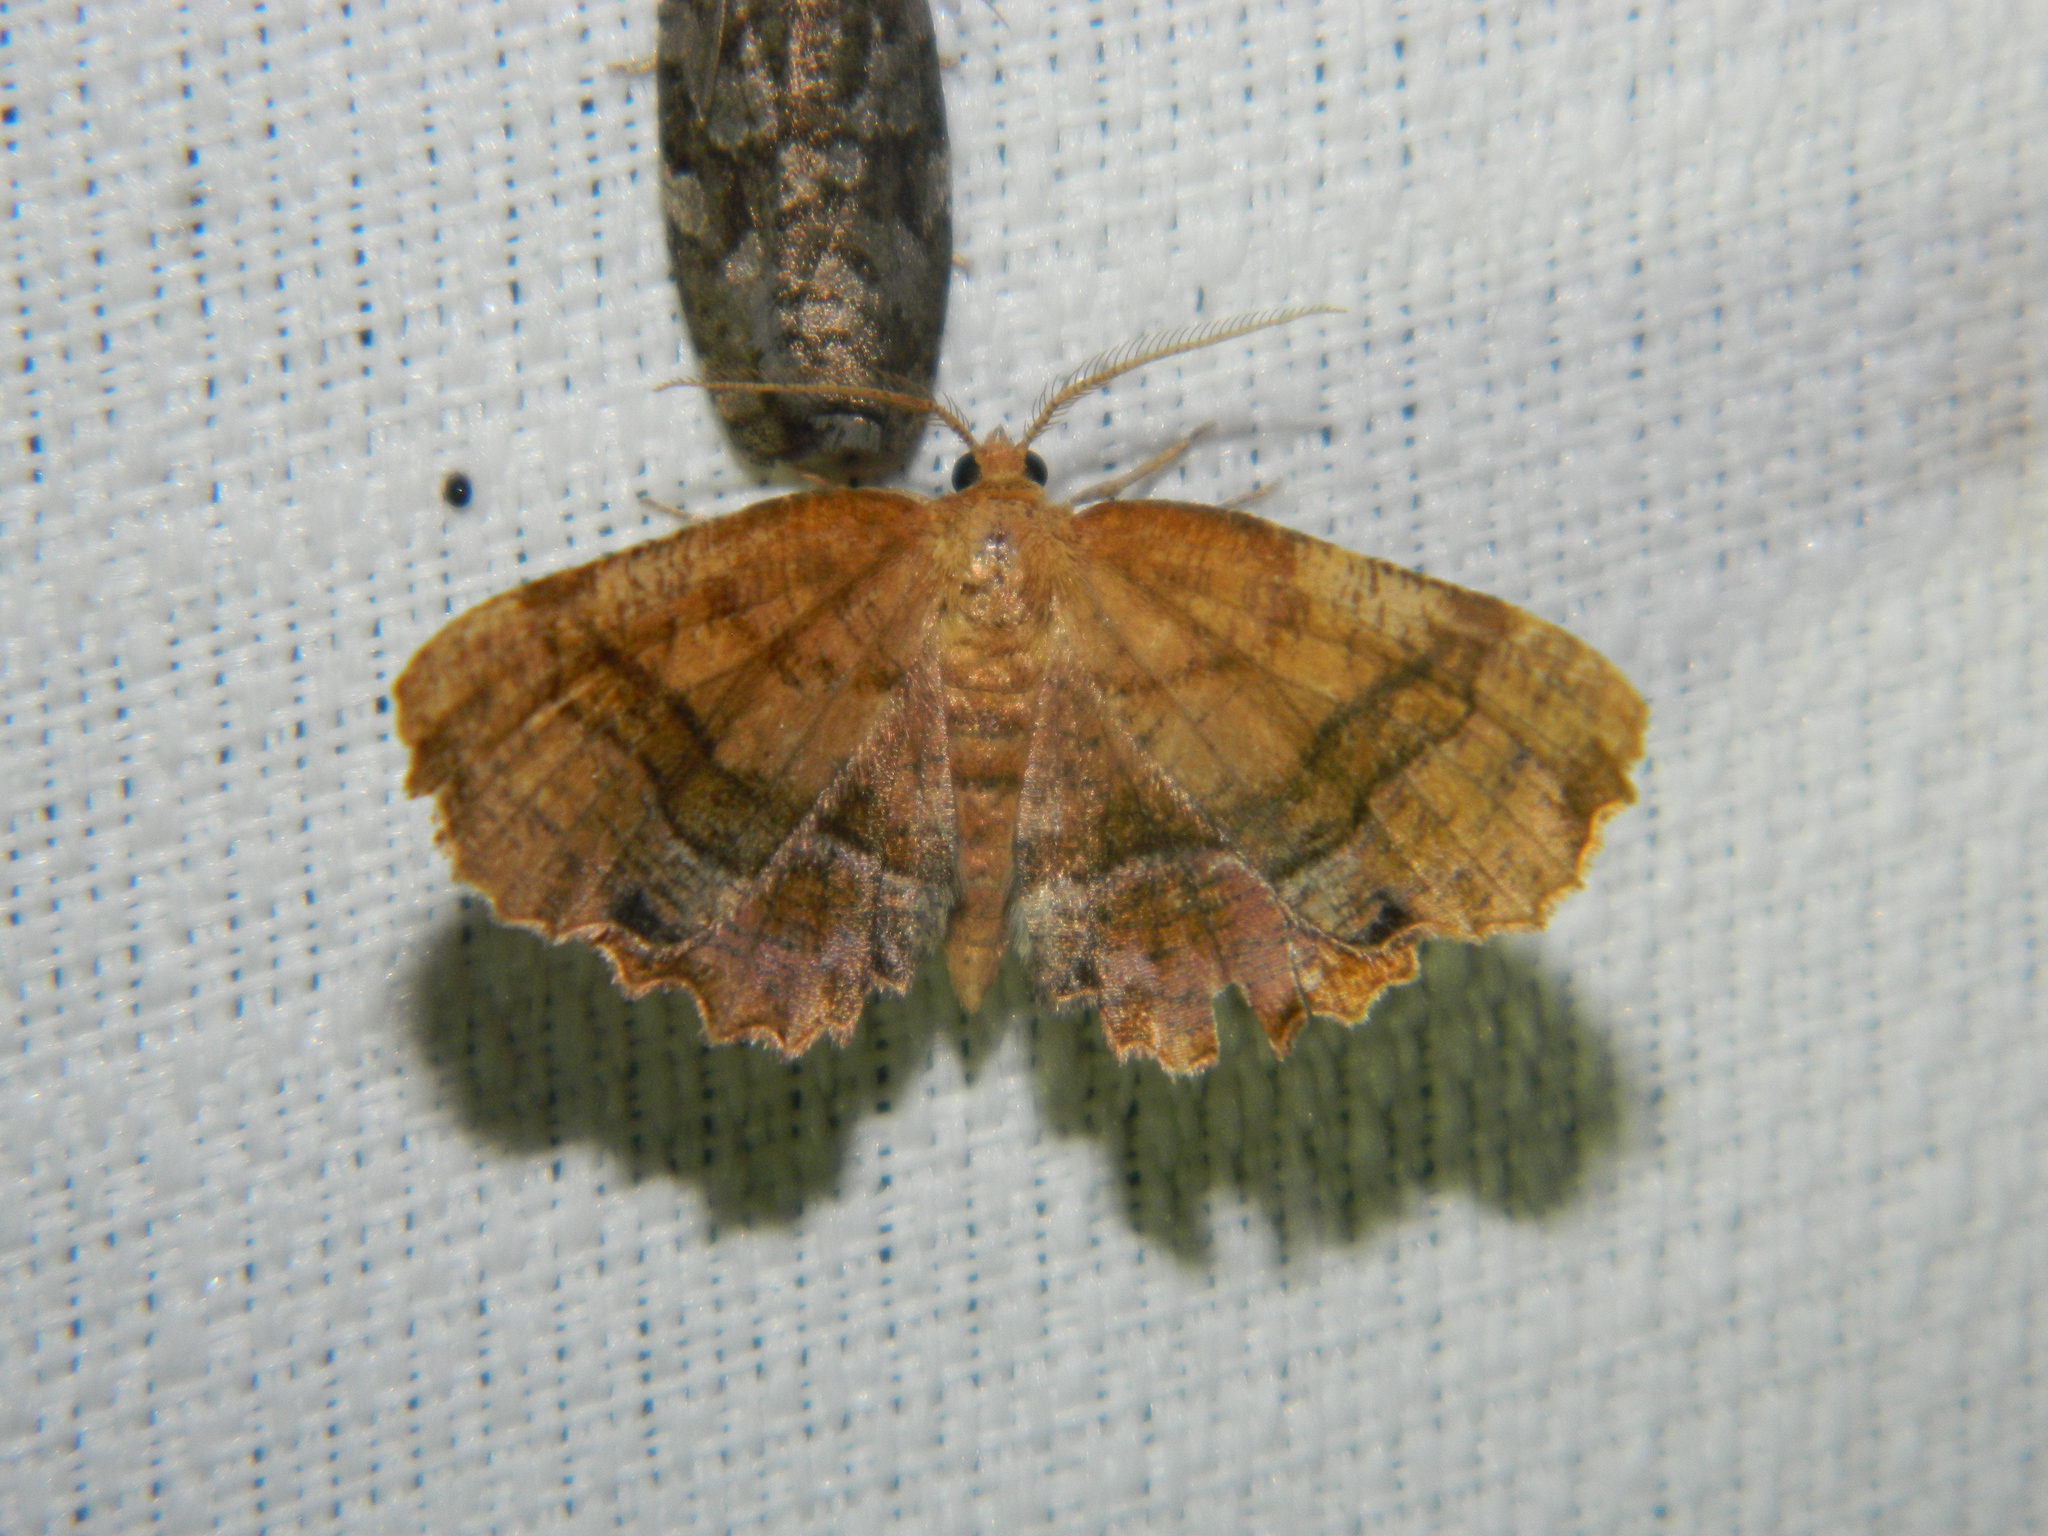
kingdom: Animalia
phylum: Arthropoda
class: Insecta
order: Lepidoptera
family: Geometridae
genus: Cepphis
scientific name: Cepphis armataria
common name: Scallop moth
